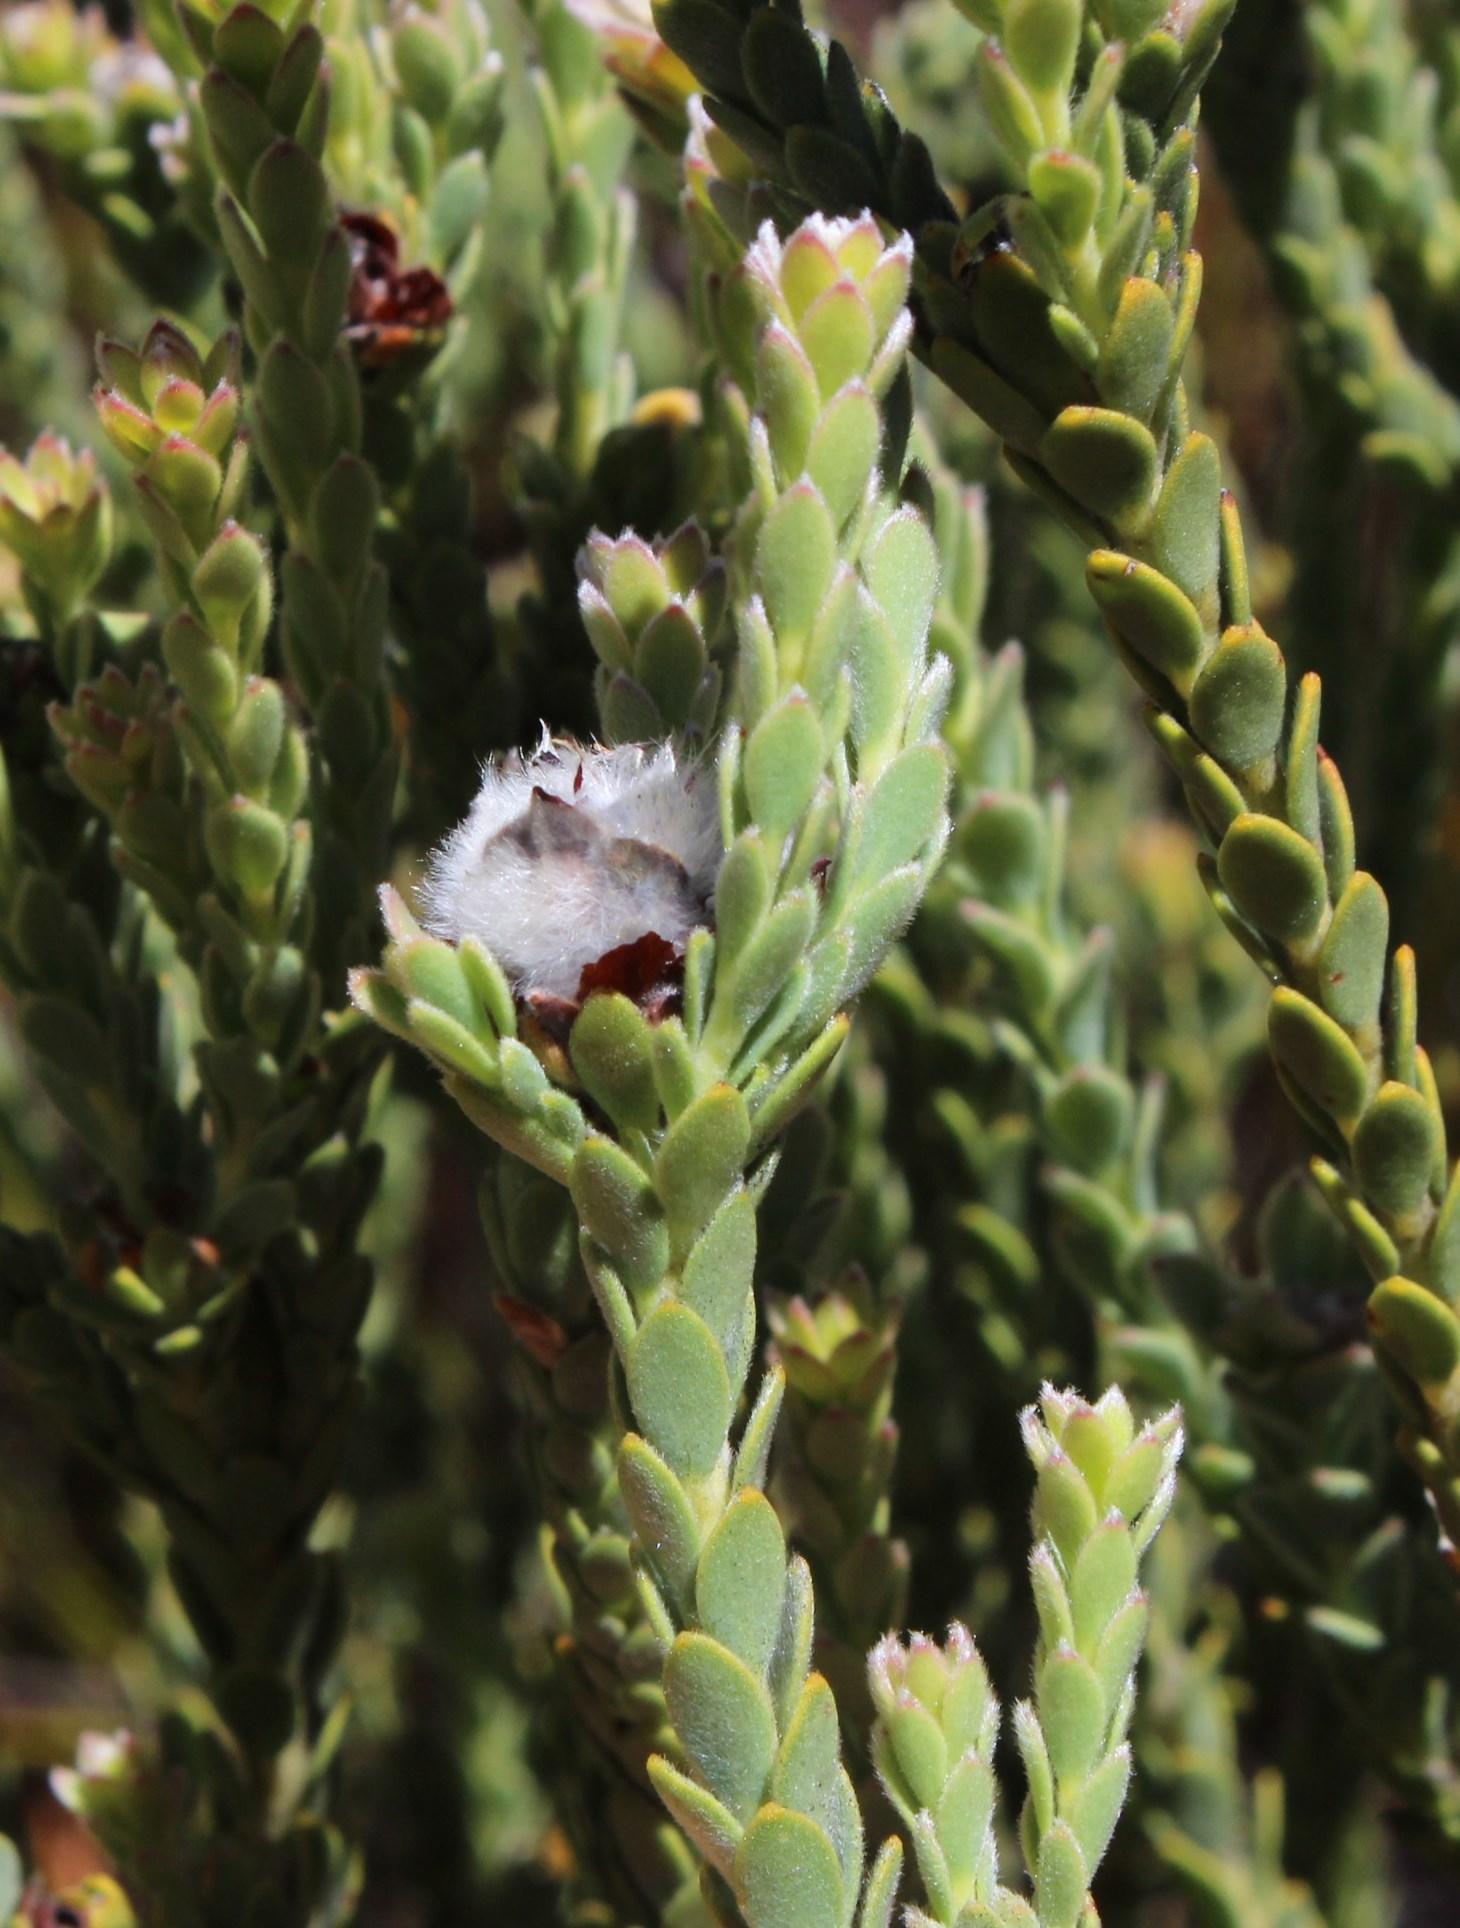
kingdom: Plantae
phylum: Tracheophyta
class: Magnoliopsida
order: Proteales
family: Proteaceae
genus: Leucadendron
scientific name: Leucadendron dubium
